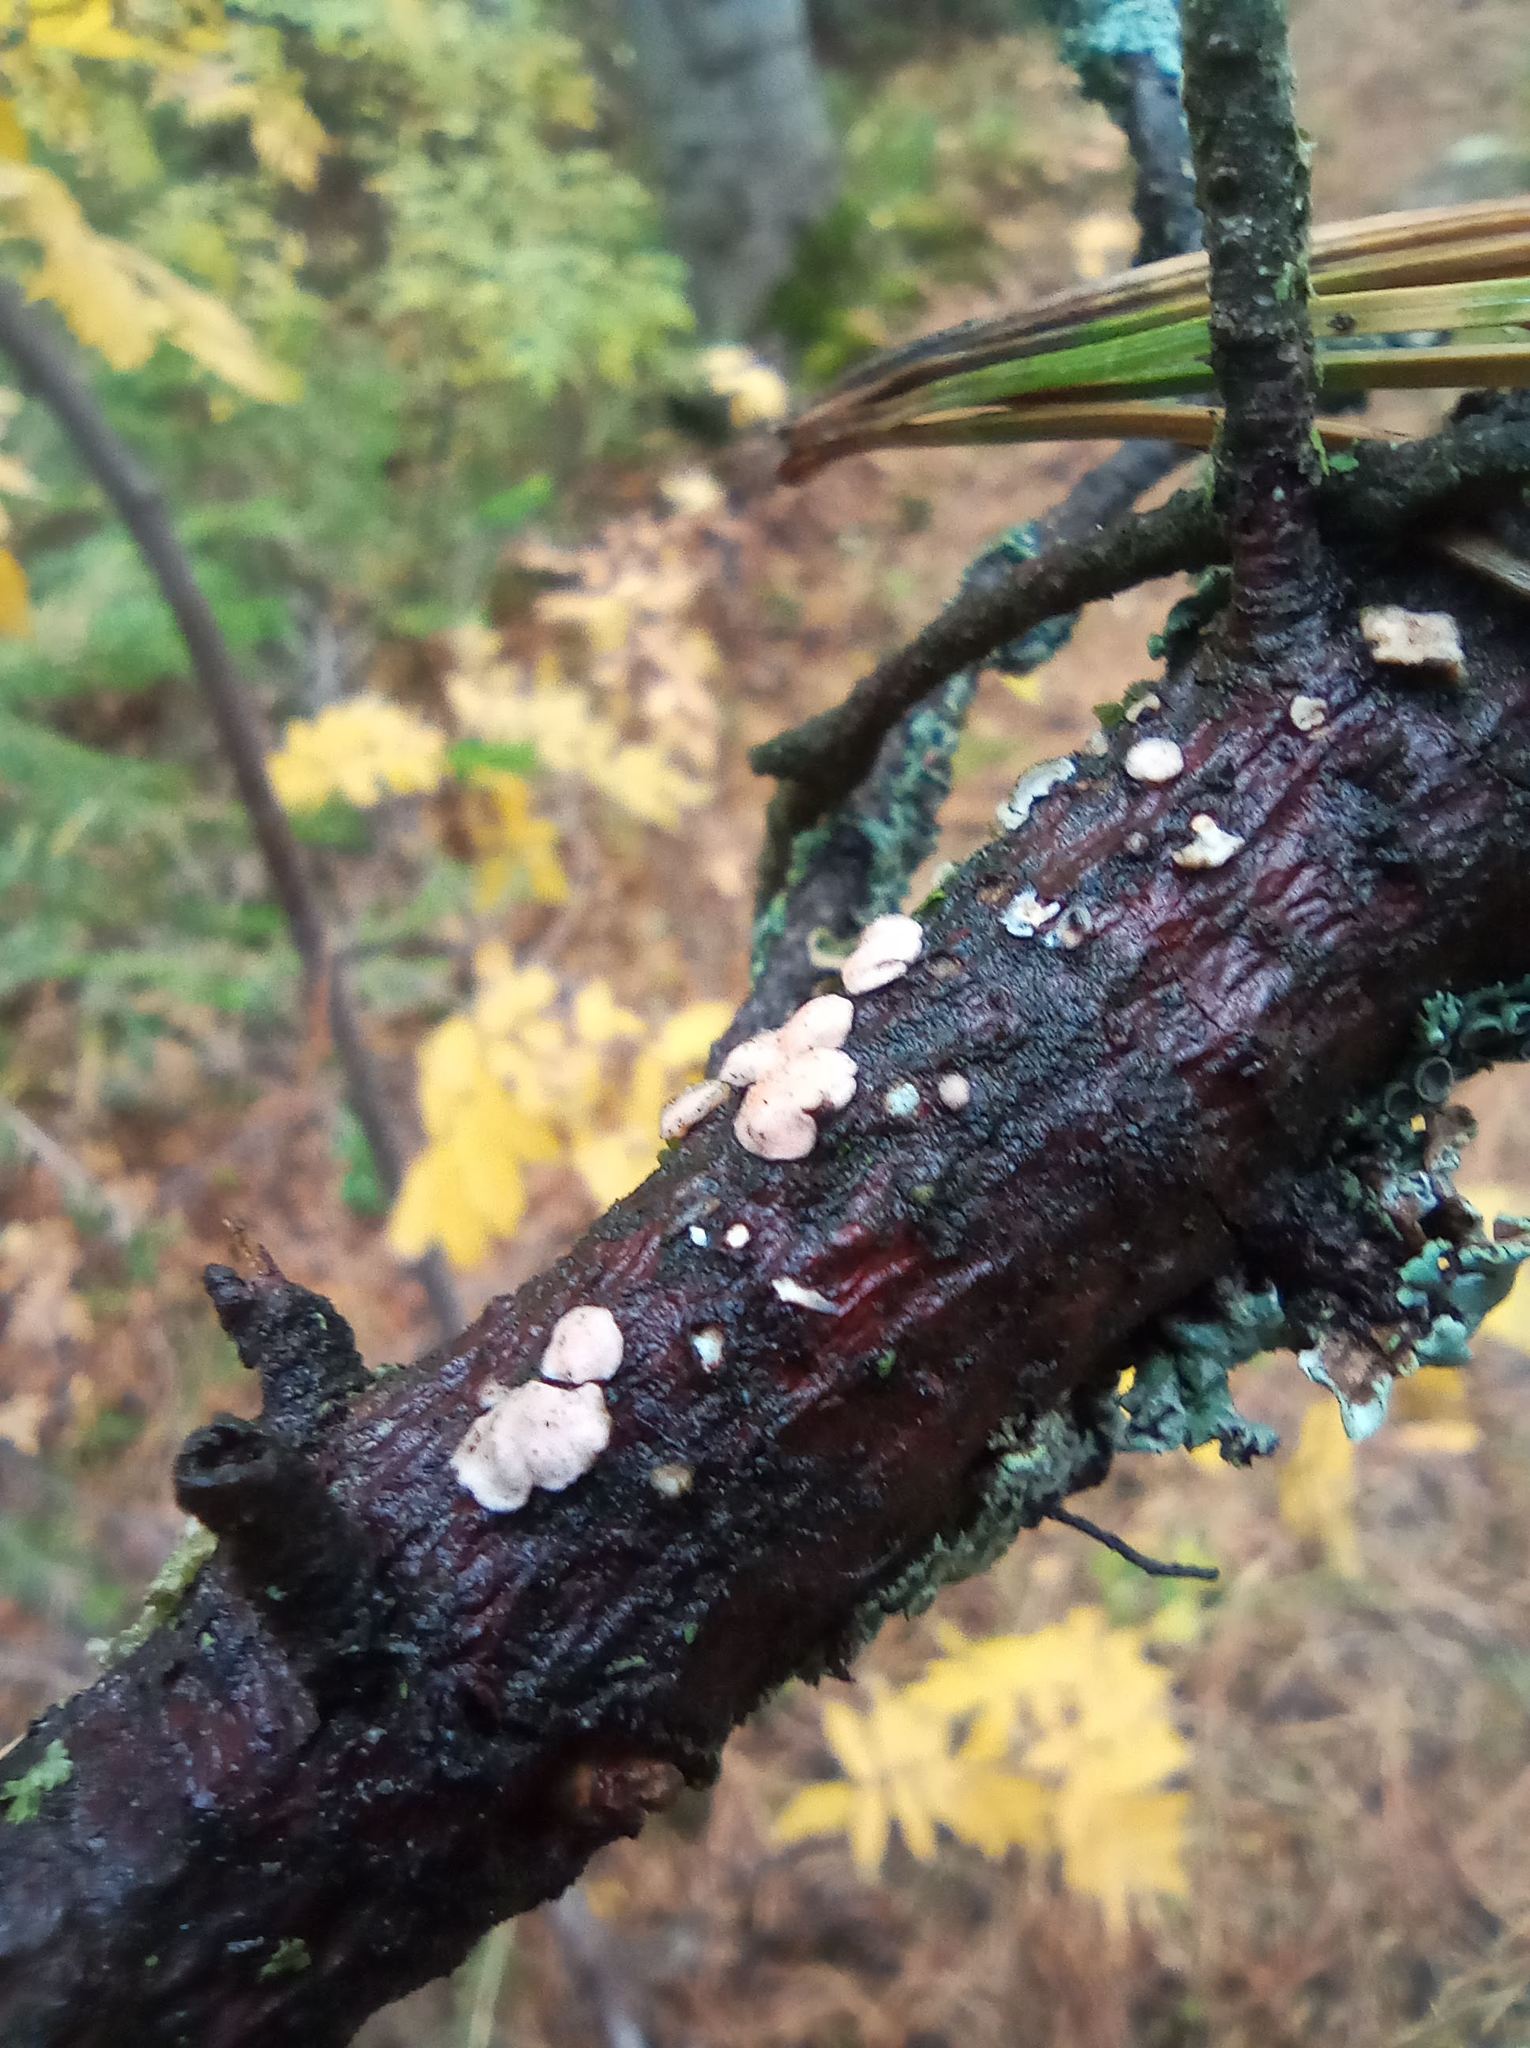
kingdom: Fungi
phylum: Basidiomycota
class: Agaricomycetes
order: Russulales
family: Stereaceae
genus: Aleurodiscus
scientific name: Aleurodiscus amorphus
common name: Orange discus
